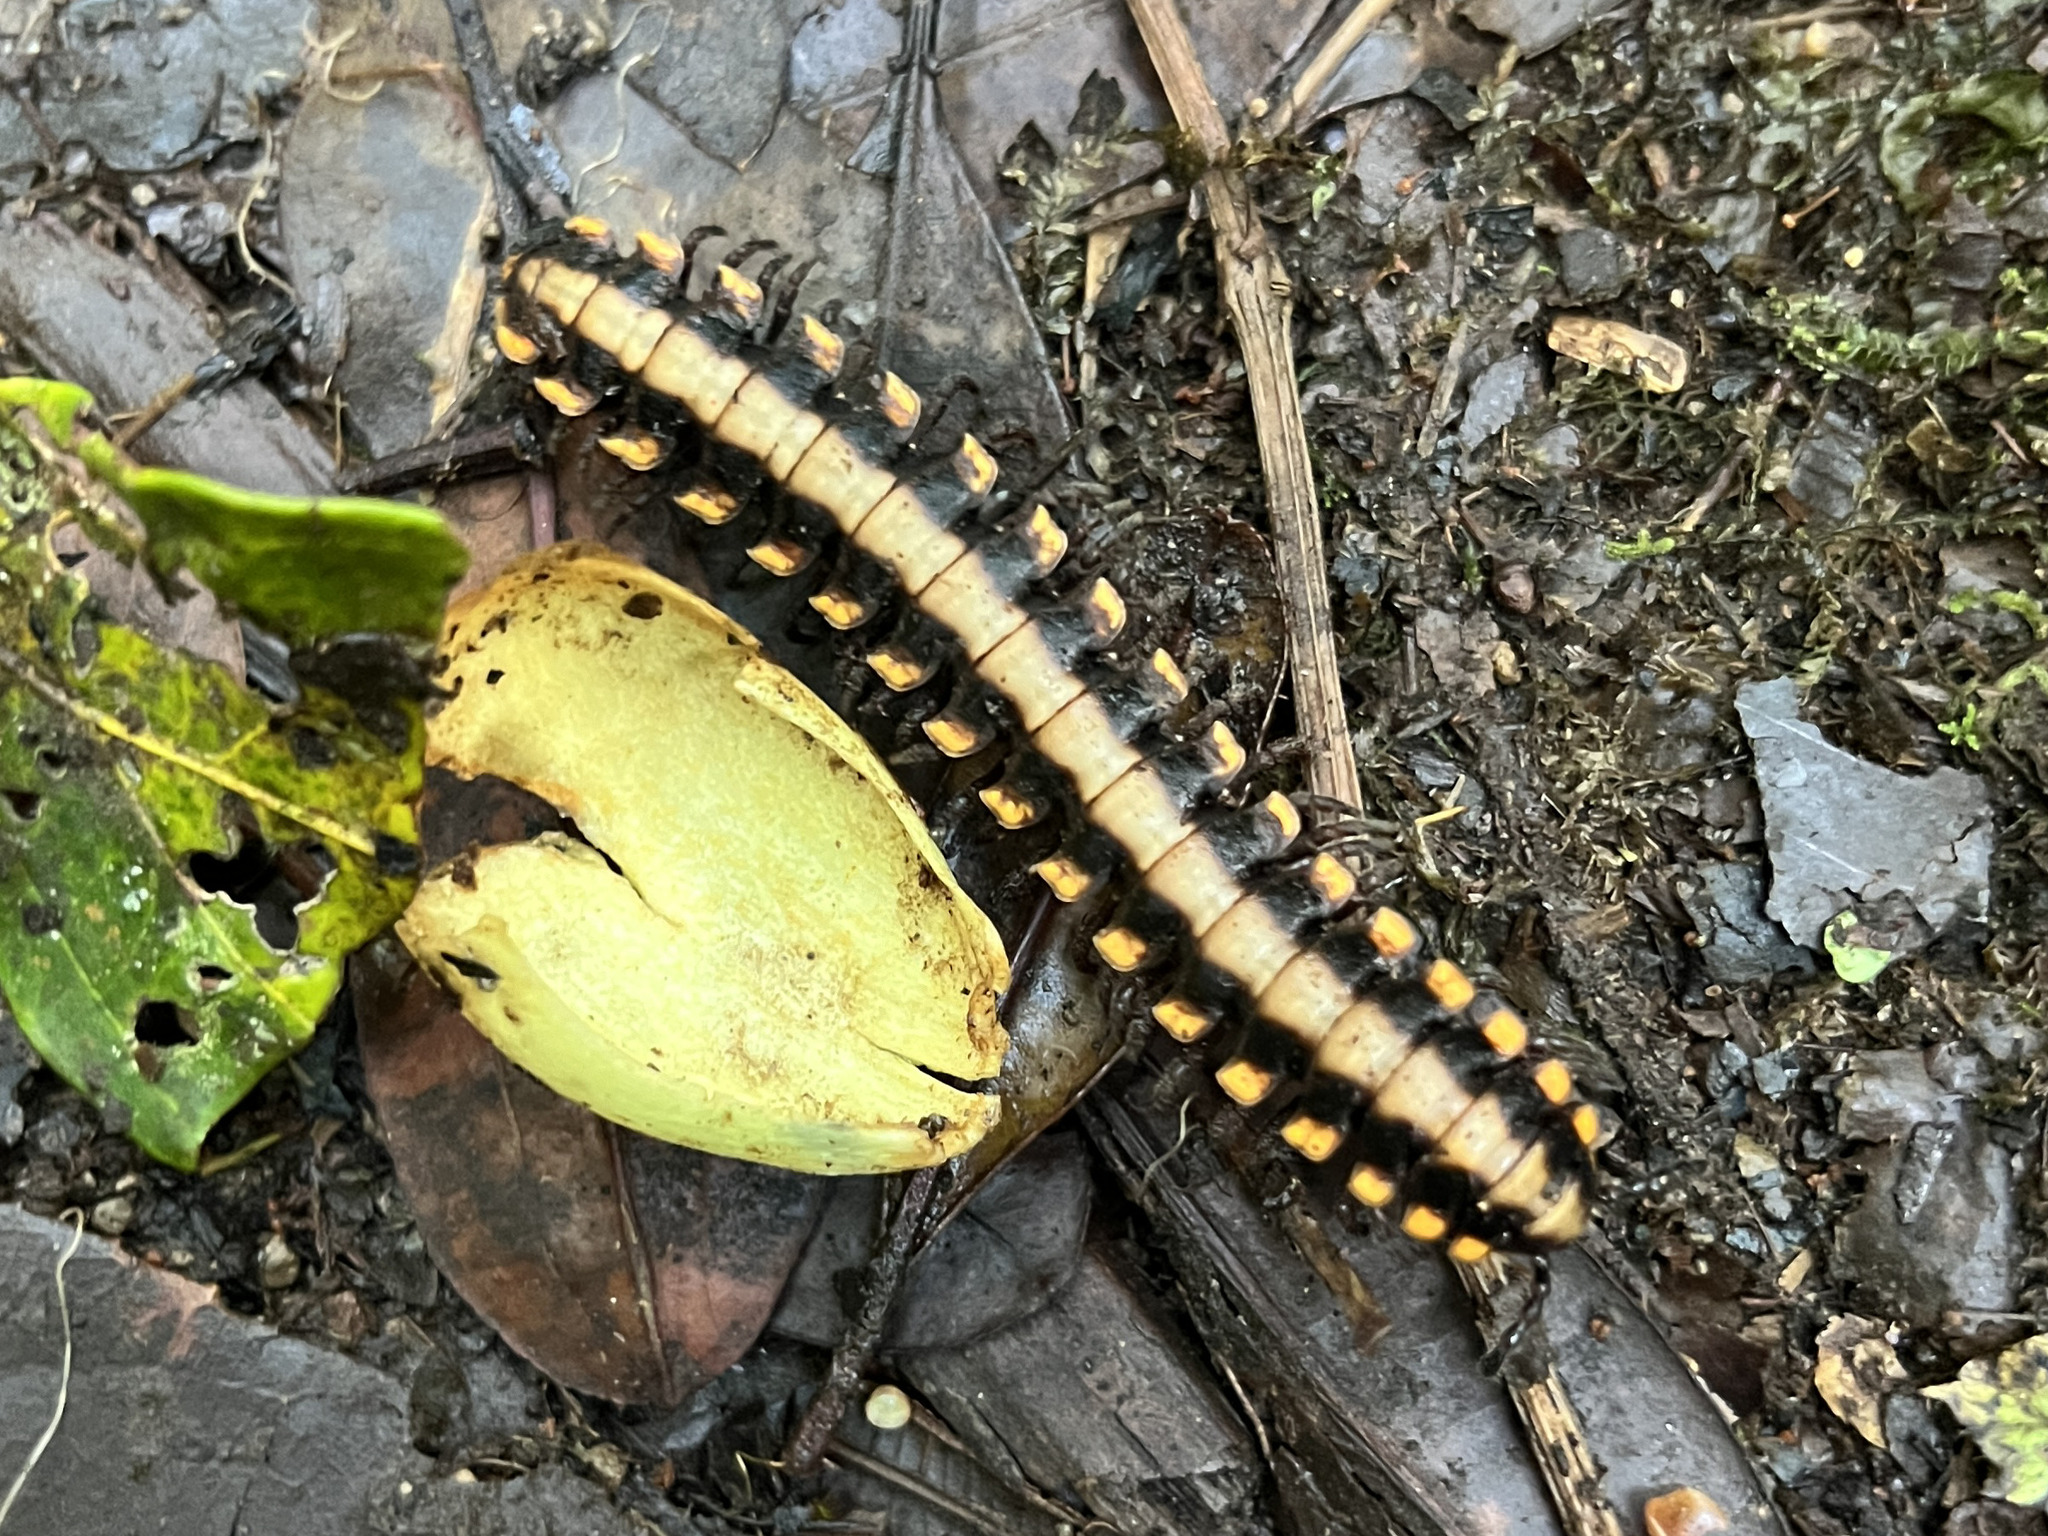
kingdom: Animalia
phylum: Arthropoda
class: Diplopoda
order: Polydesmida
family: Platyrhacidae
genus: Nyssodesmus
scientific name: Nyssodesmus python
